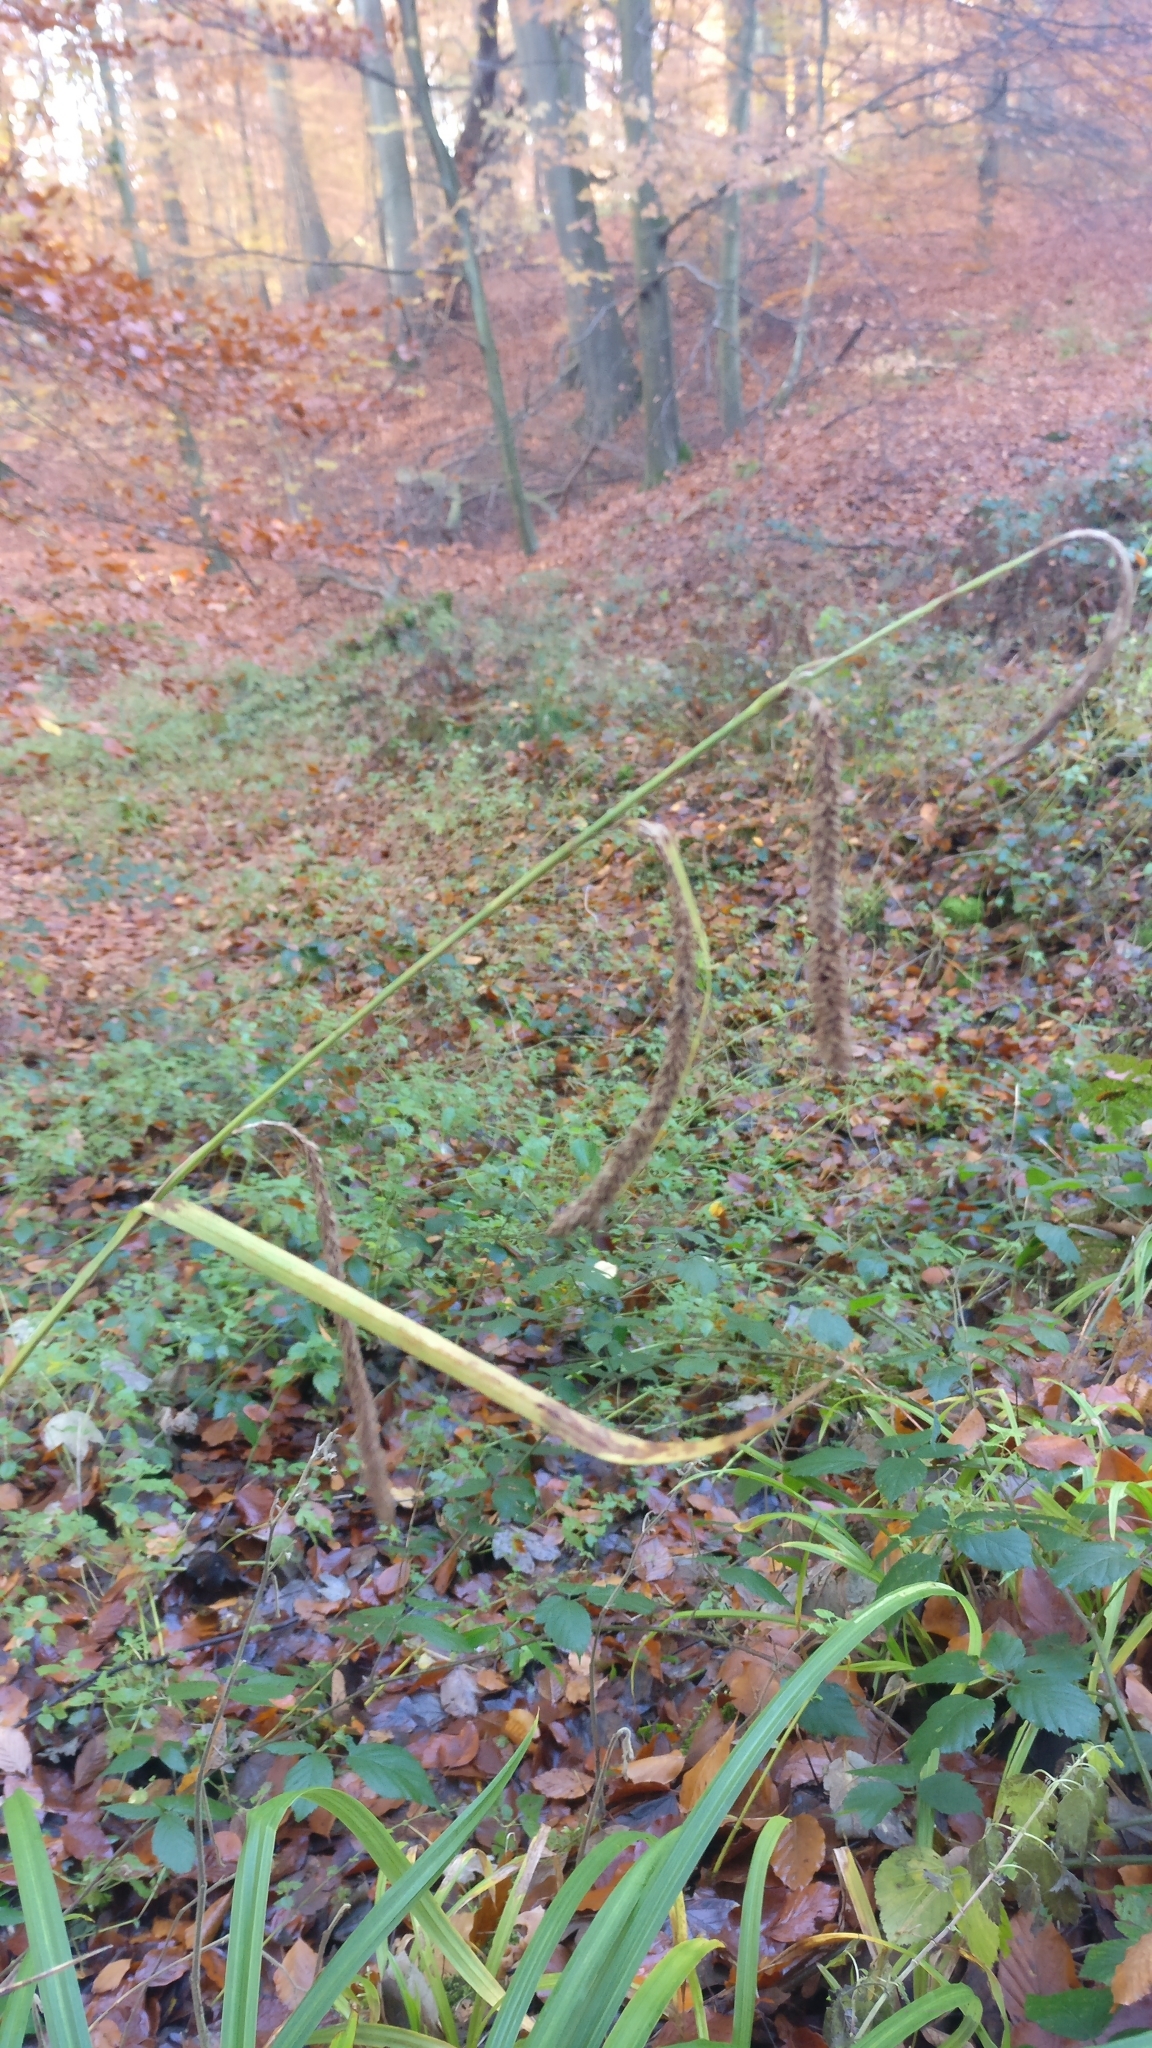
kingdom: Plantae
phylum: Tracheophyta
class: Liliopsida
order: Poales
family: Cyperaceae
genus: Carex
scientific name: Carex pendula
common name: Pendulous sedge
